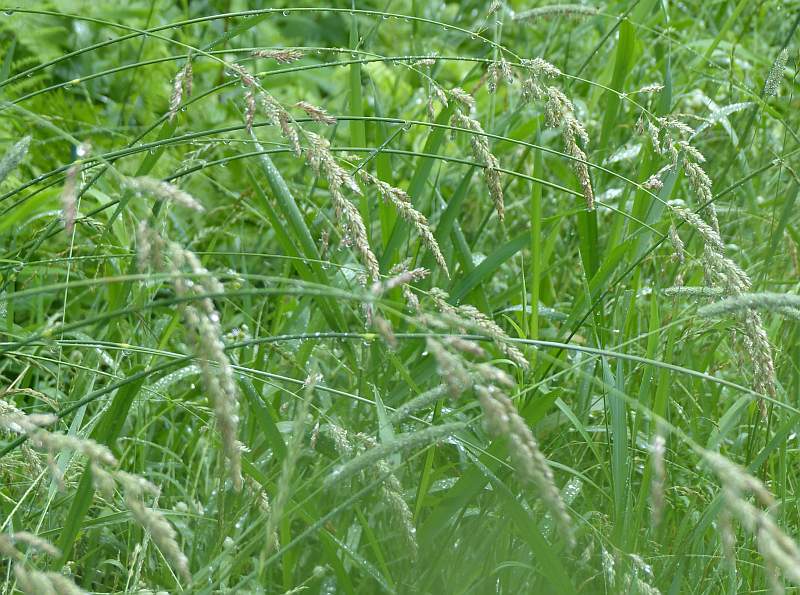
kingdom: Plantae
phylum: Tracheophyta
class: Liliopsida
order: Poales
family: Poaceae
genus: Phalaris
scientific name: Phalaris arundinacea
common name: Reed canary-grass
